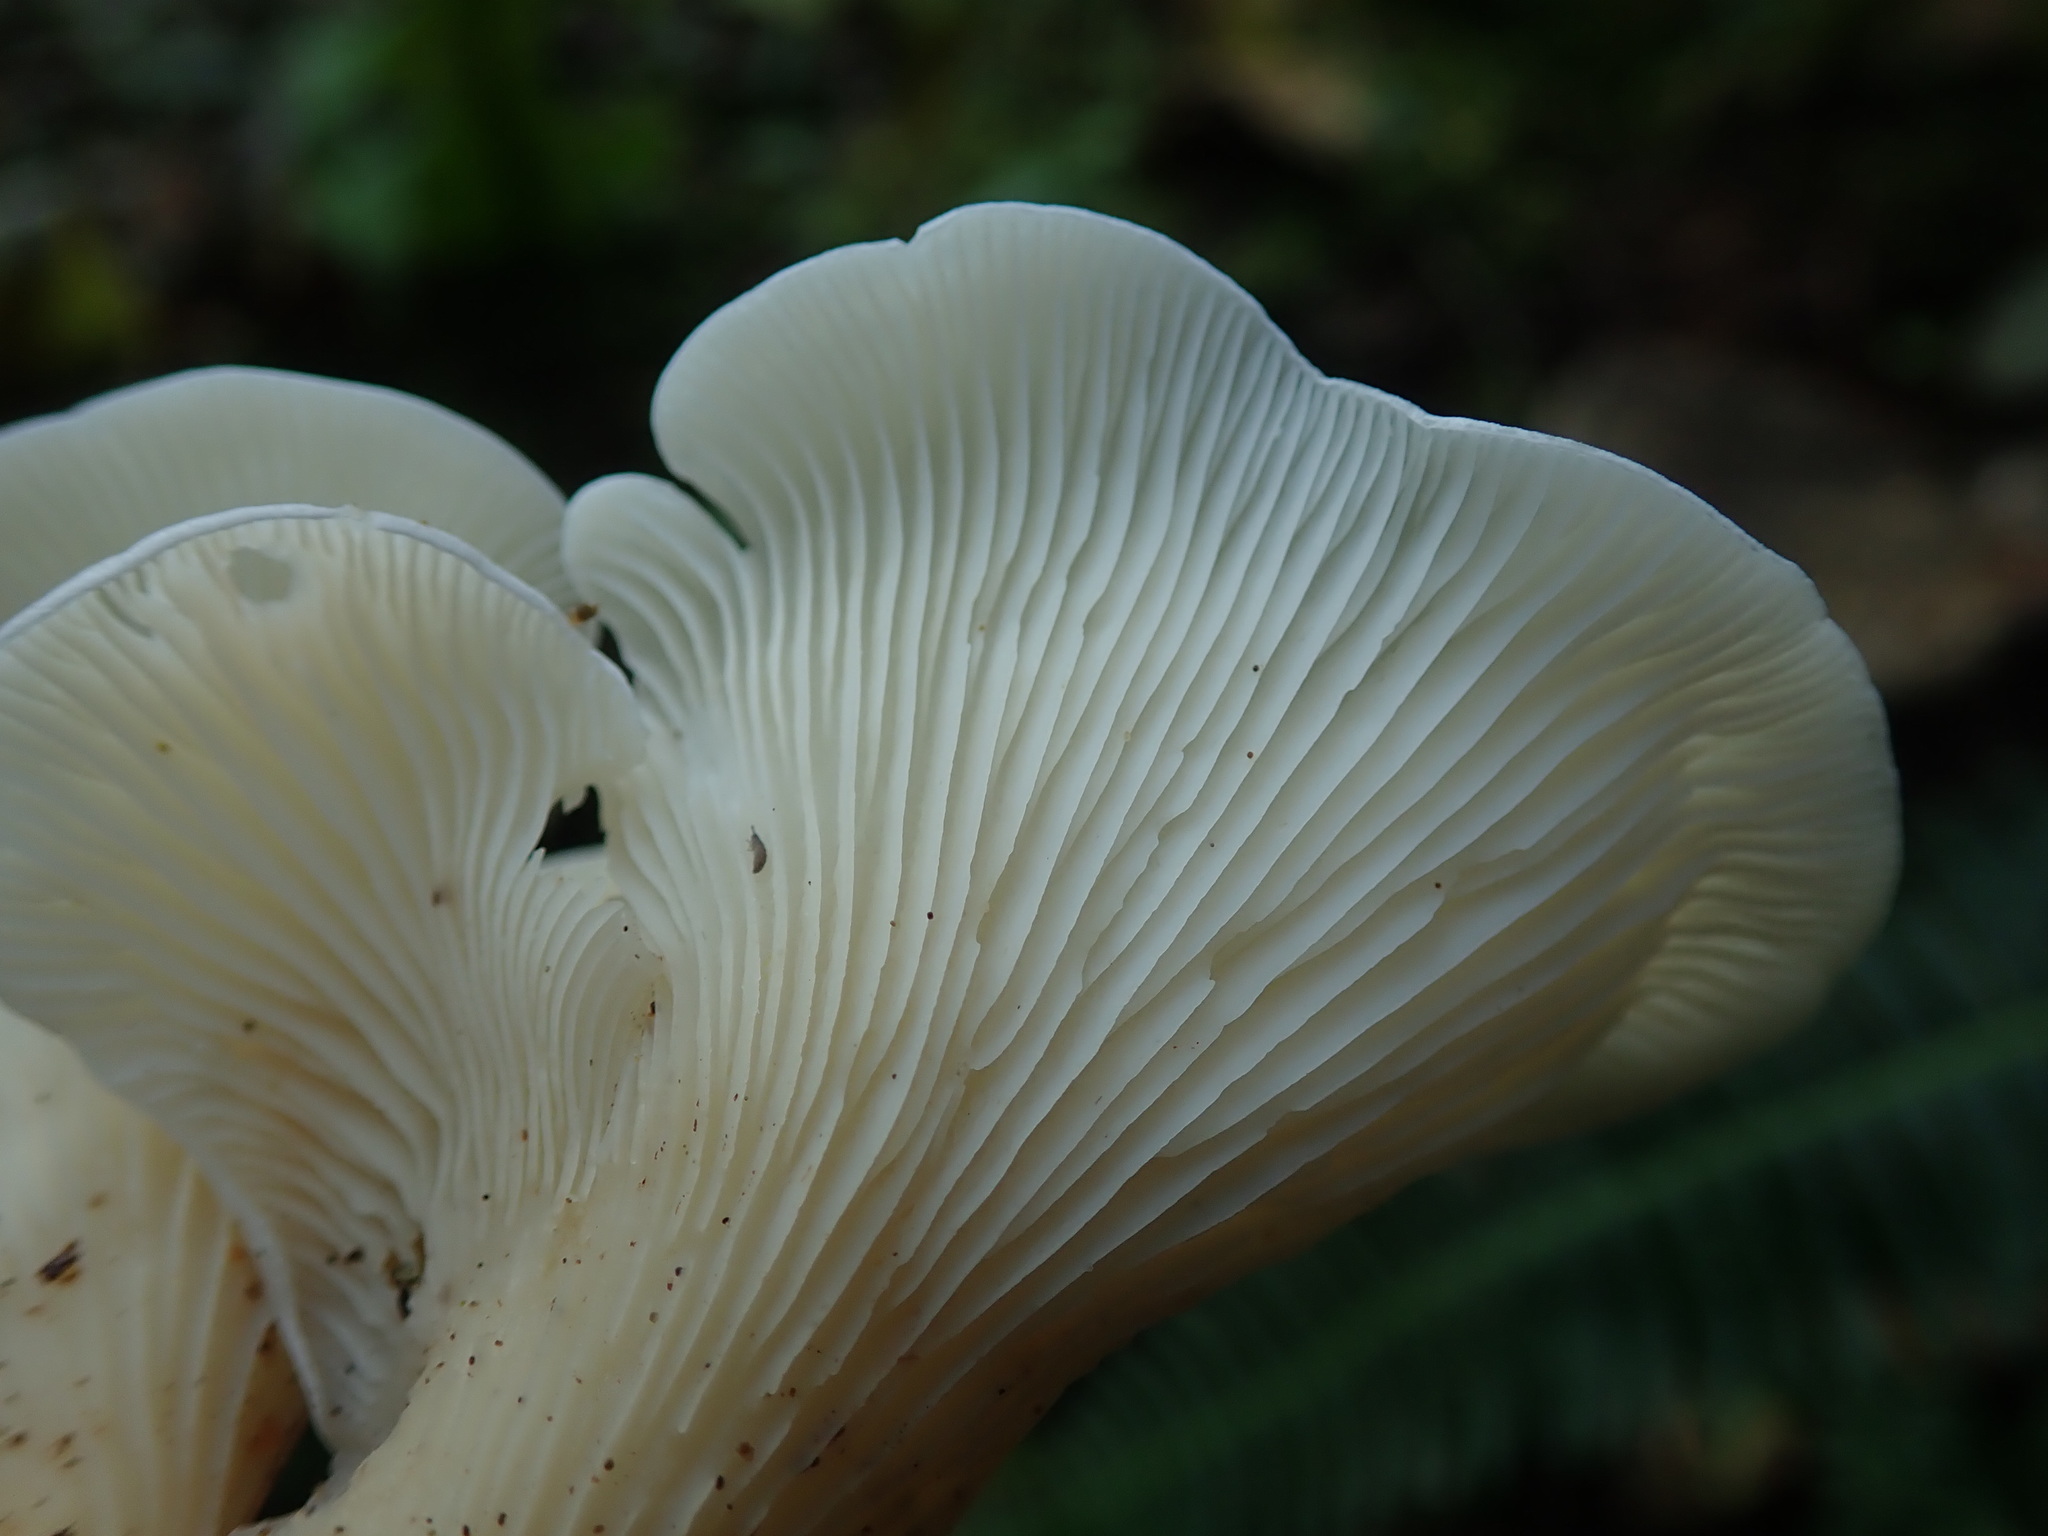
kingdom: Fungi
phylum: Basidiomycota
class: Agaricomycetes
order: Agaricales
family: Marasmiaceae
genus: Pleurocybella
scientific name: Pleurocybella porrigens
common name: Angel's wings
